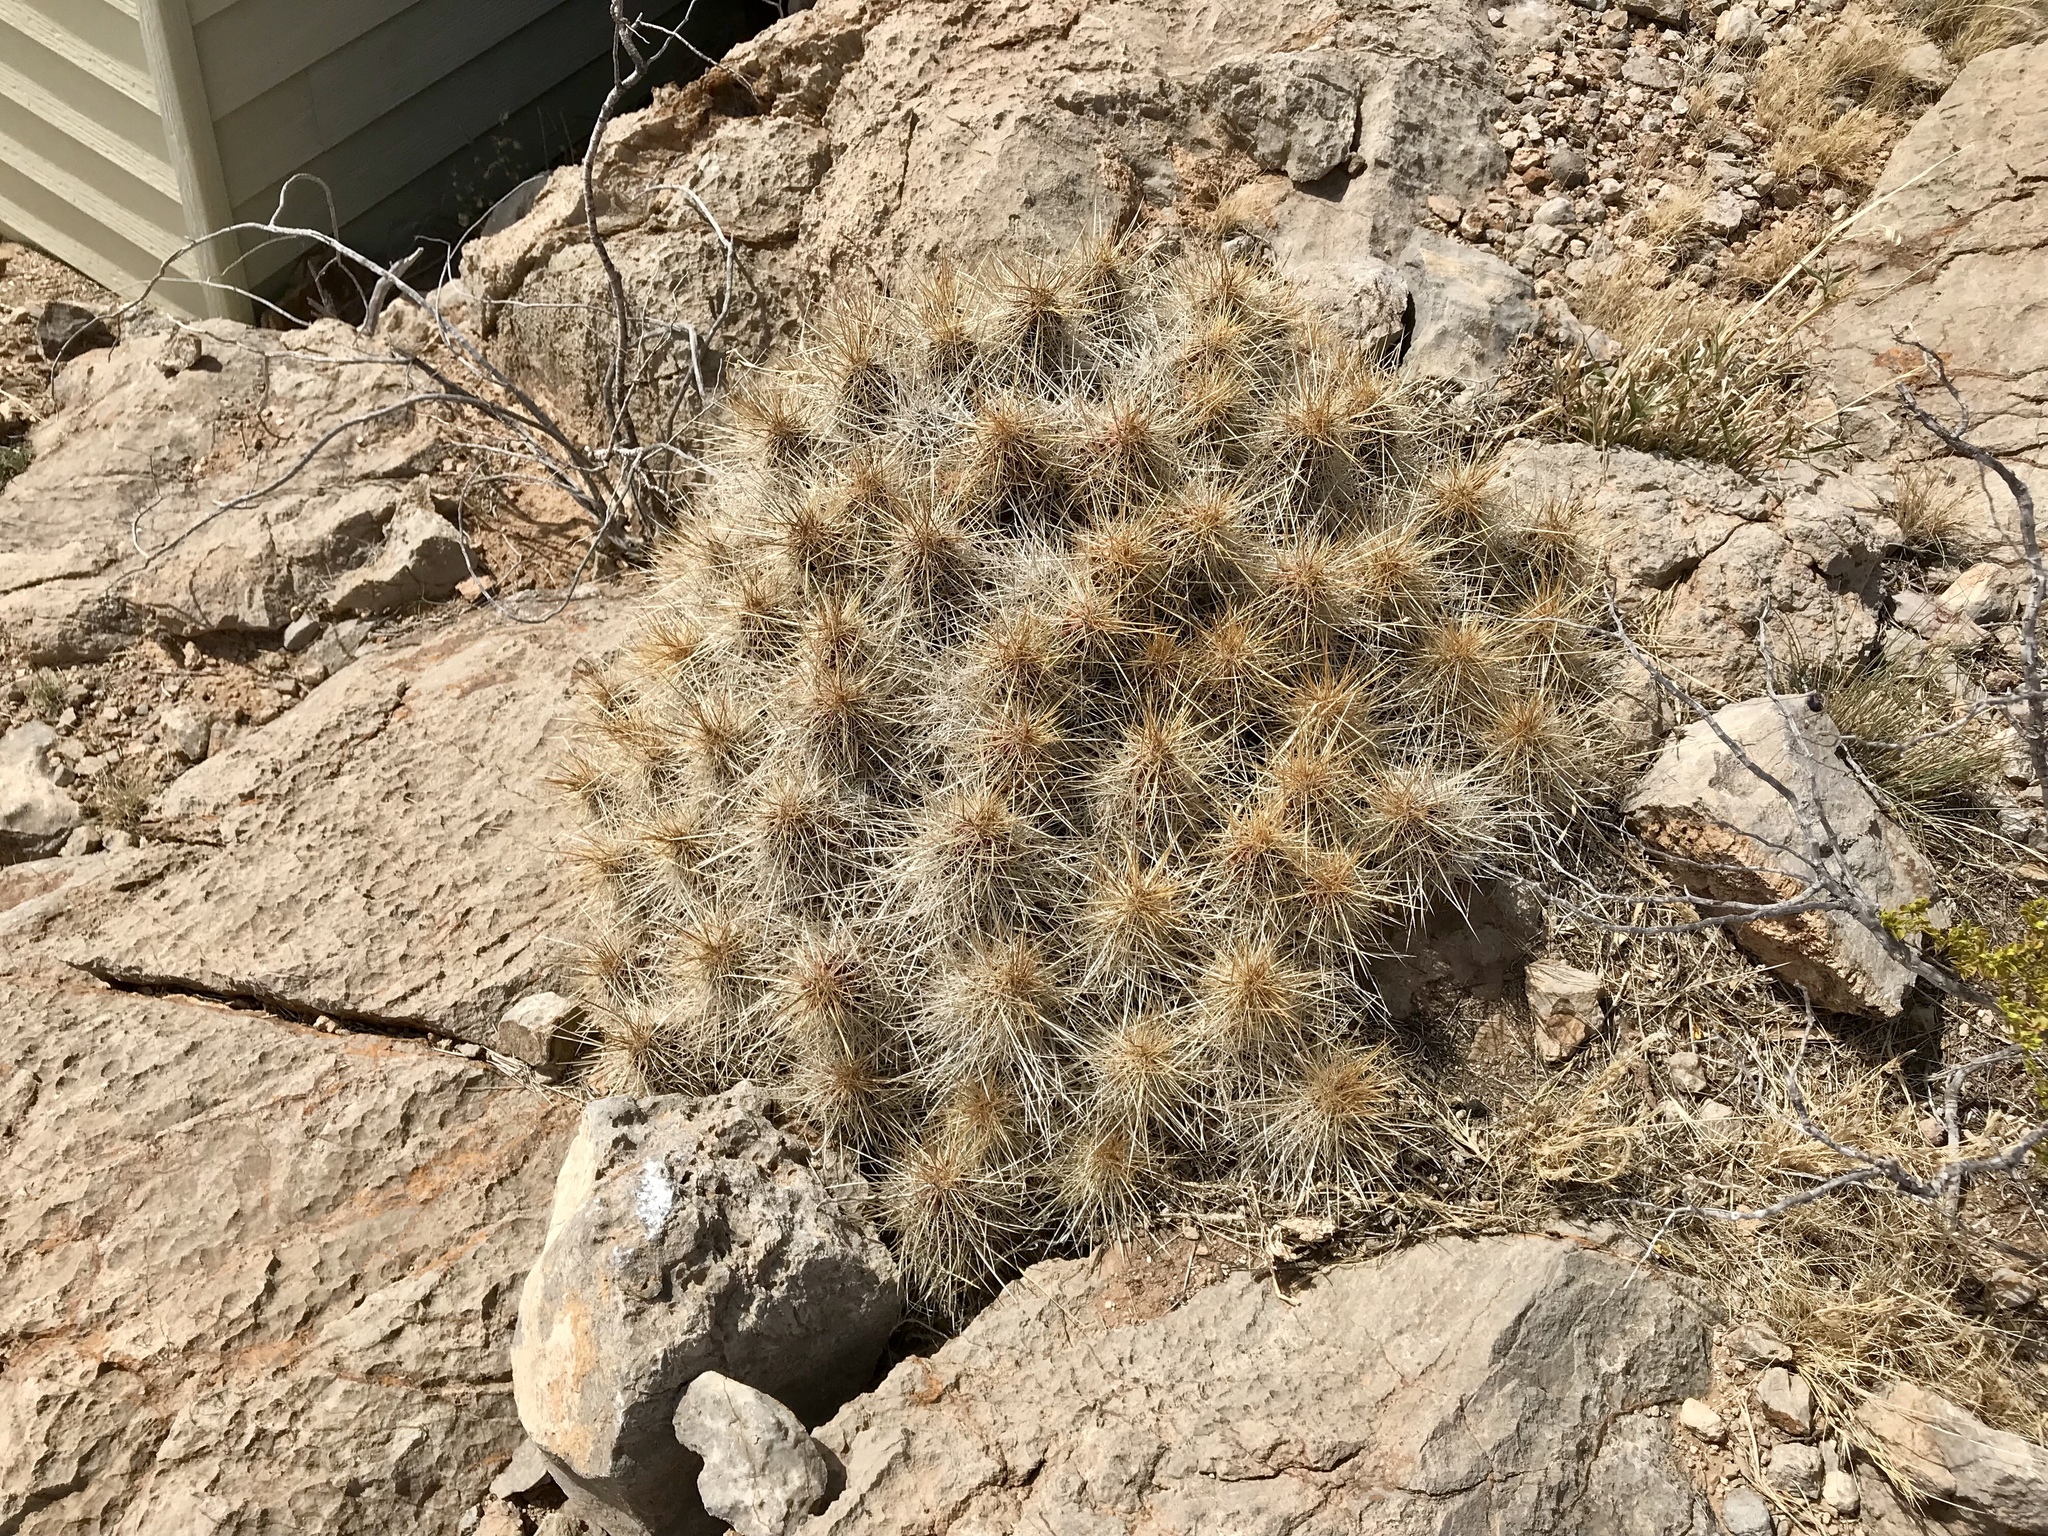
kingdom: Plantae
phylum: Tracheophyta
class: Magnoliopsida
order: Caryophyllales
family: Cactaceae
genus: Echinocereus
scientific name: Echinocereus stramineus
